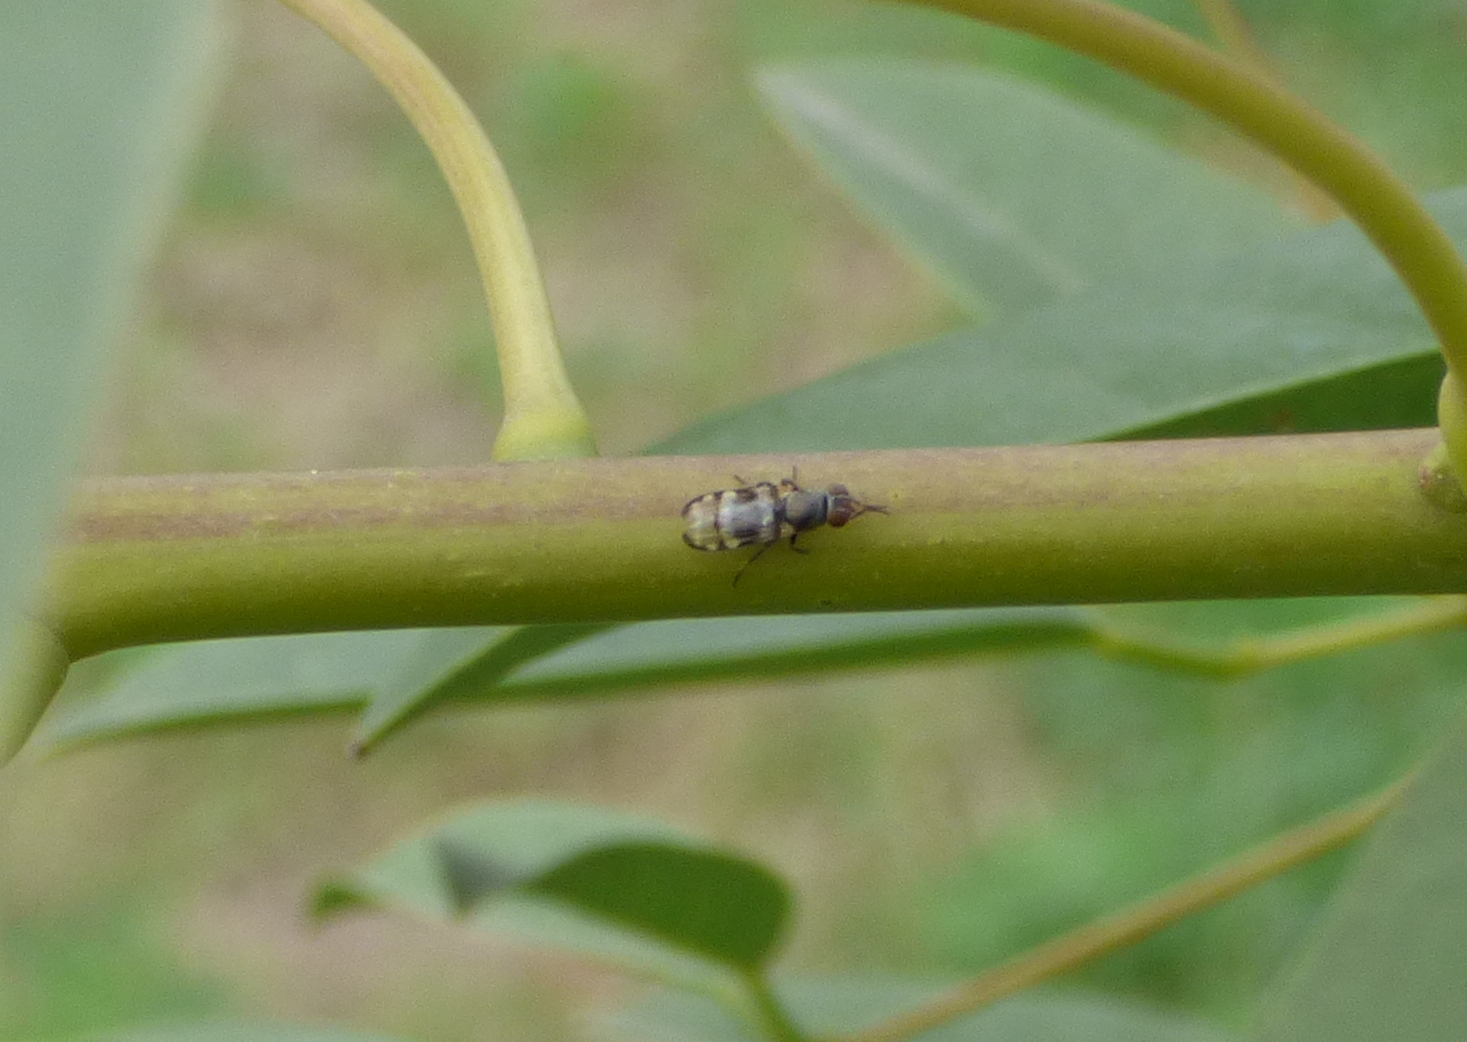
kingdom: Animalia
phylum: Arthropoda
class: Insecta
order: Diptera
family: Ulidiidae
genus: Euxesta
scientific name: Euxesta eluta
